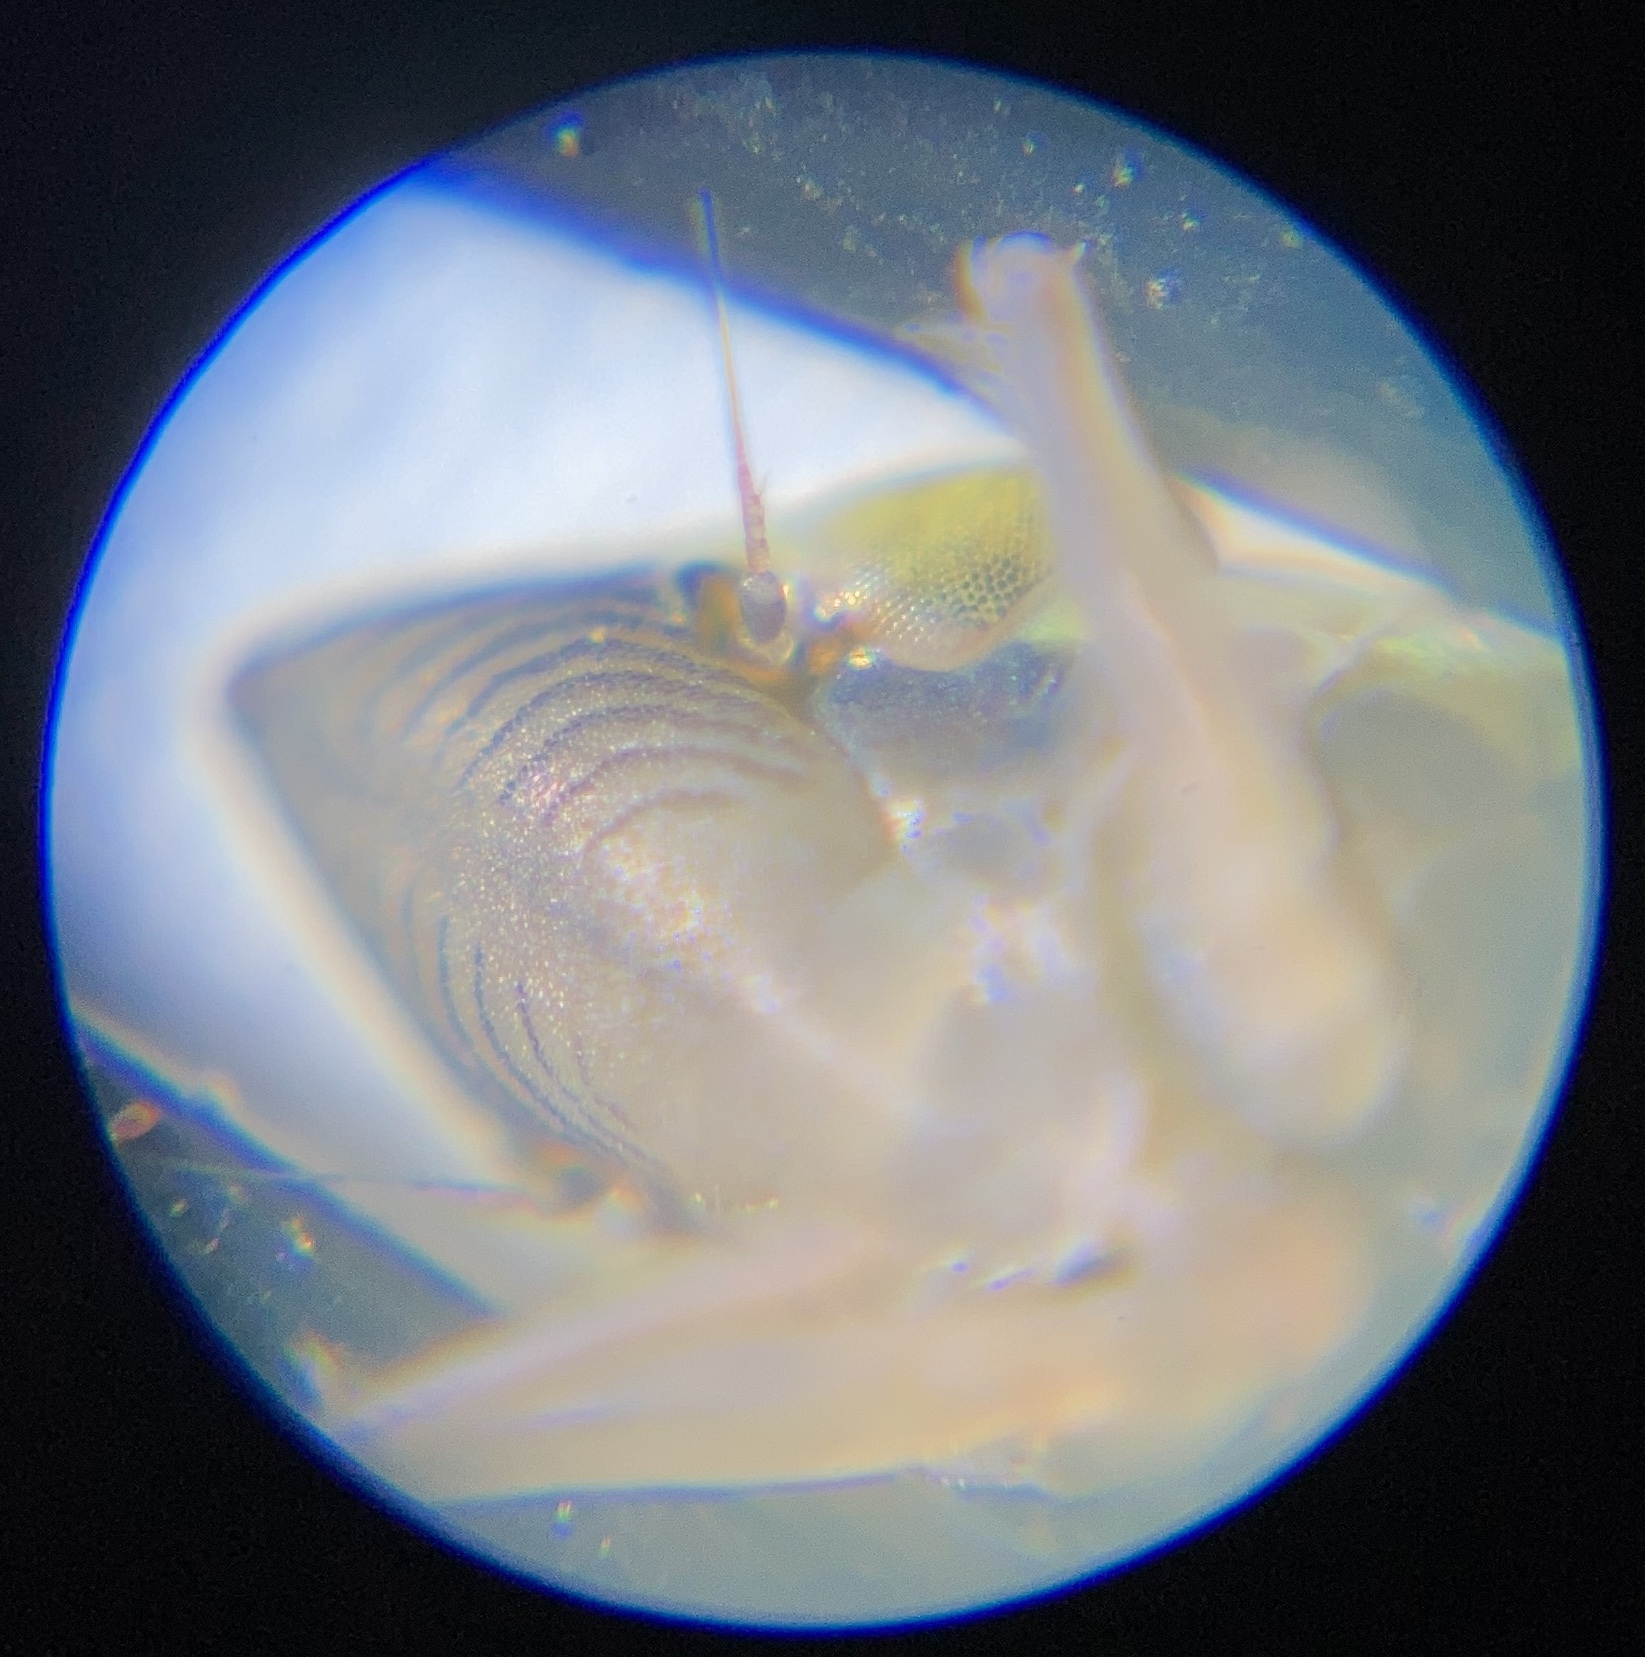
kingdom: Animalia
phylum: Arthropoda
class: Insecta
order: Hemiptera
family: Cicadellidae
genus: Draeculacephala
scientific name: Draeculacephala californica
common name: Leafhopper
